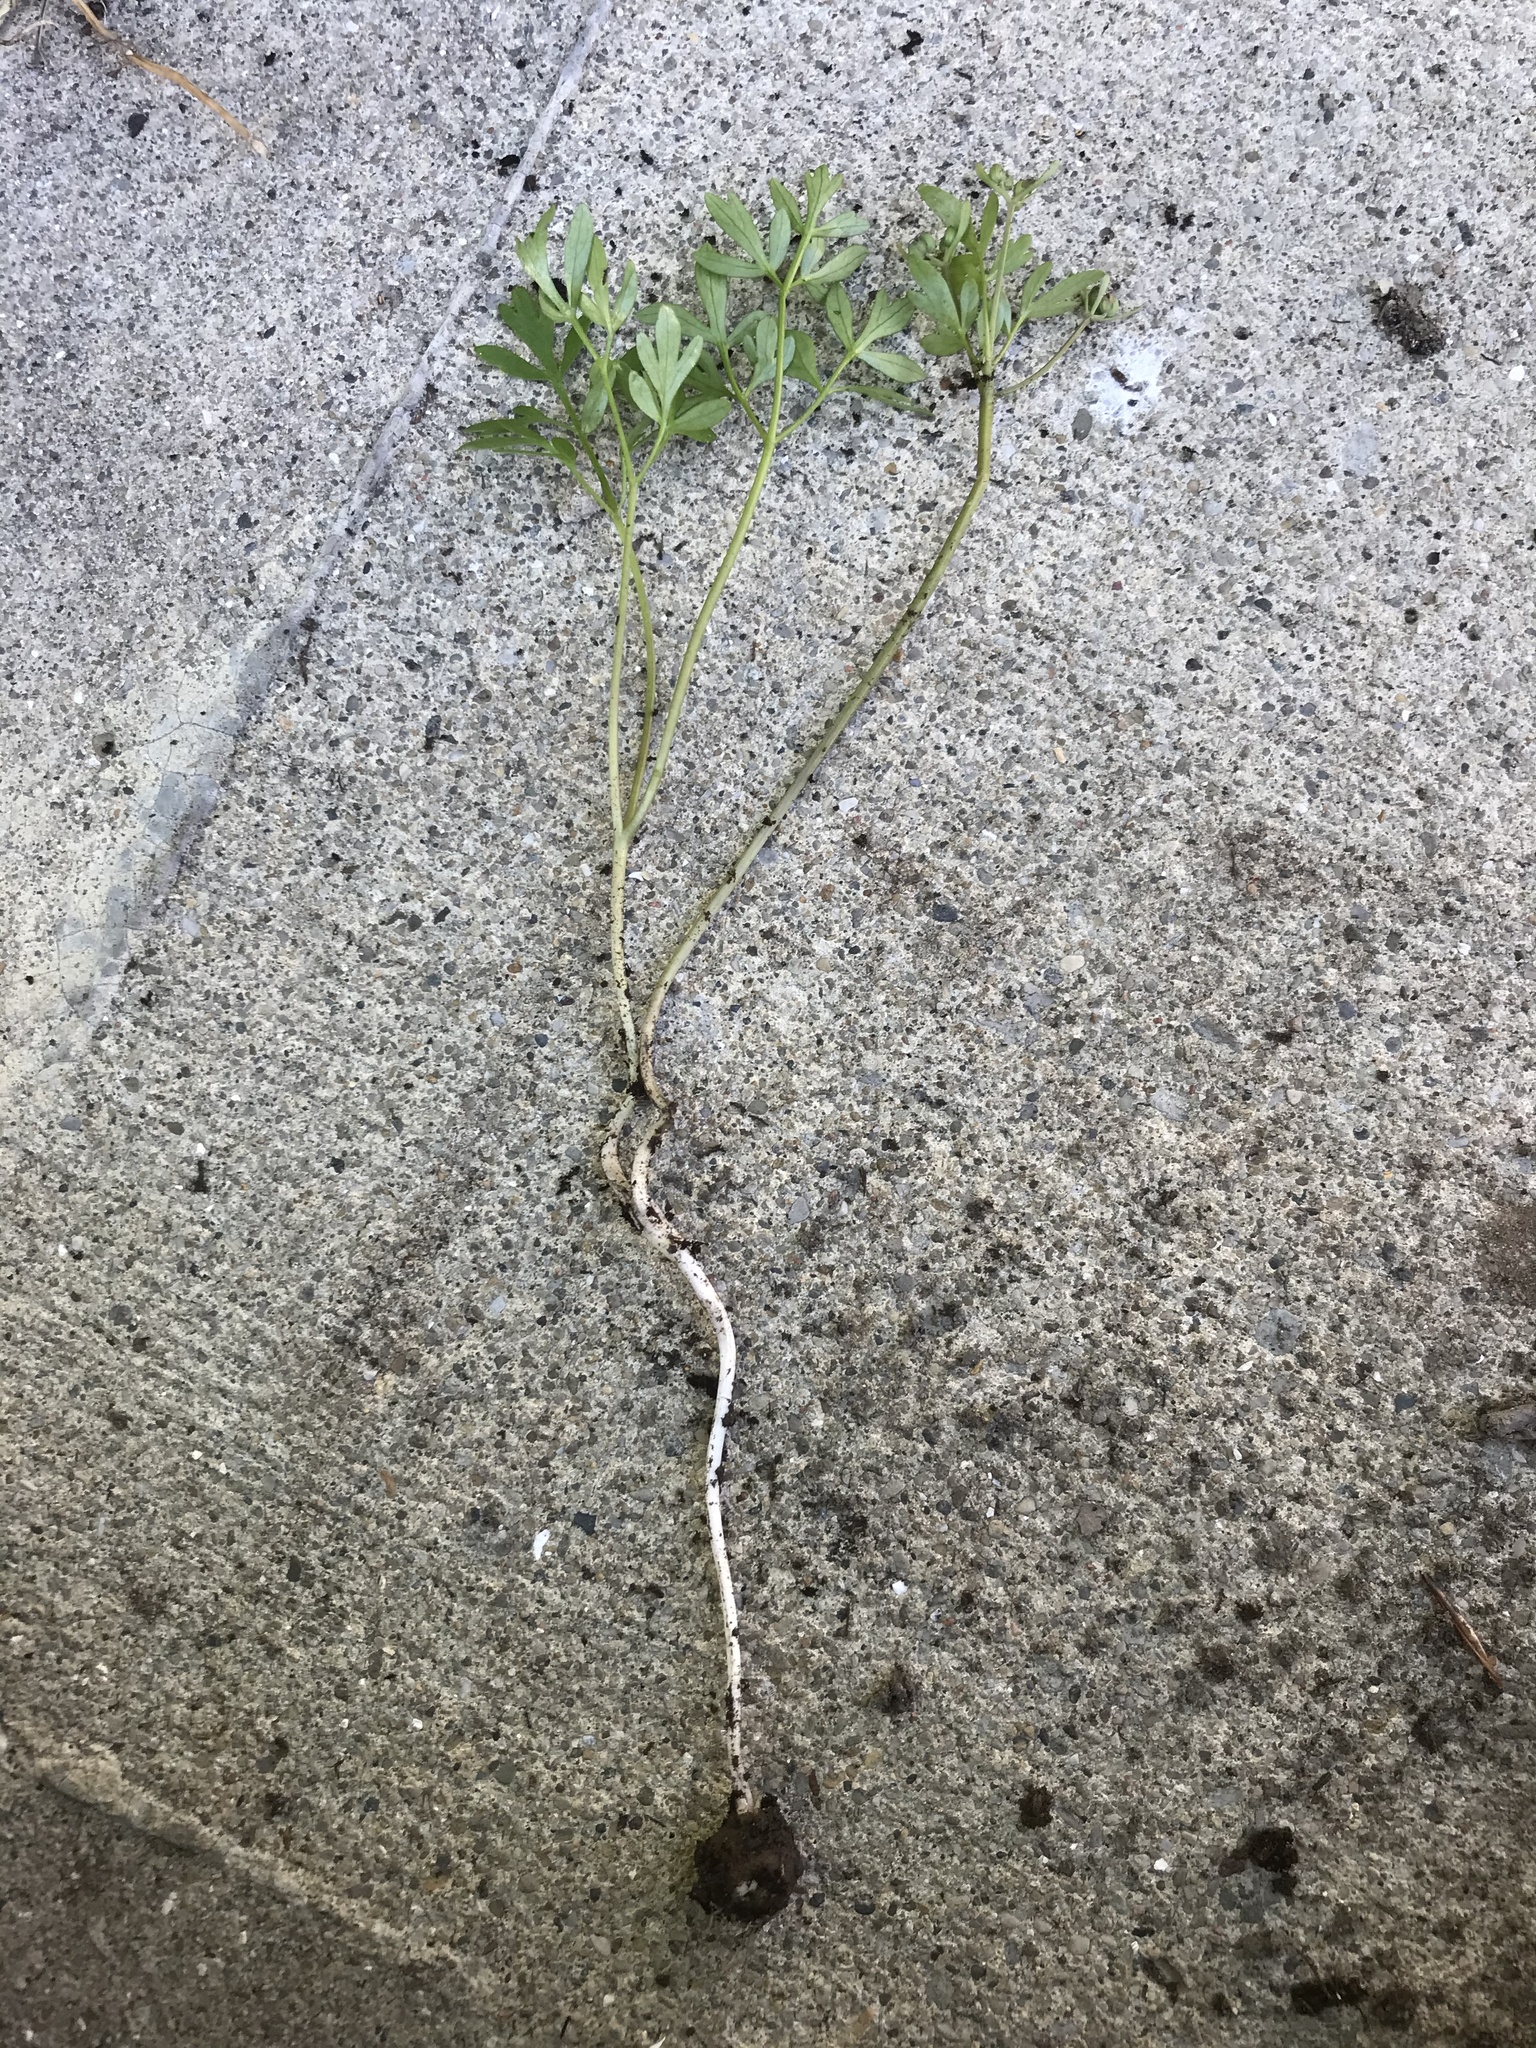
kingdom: Plantae
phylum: Tracheophyta
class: Magnoliopsida
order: Apiales
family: Apiaceae
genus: Erigenia
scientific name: Erigenia bulbosa
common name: Pepper-and-salt
